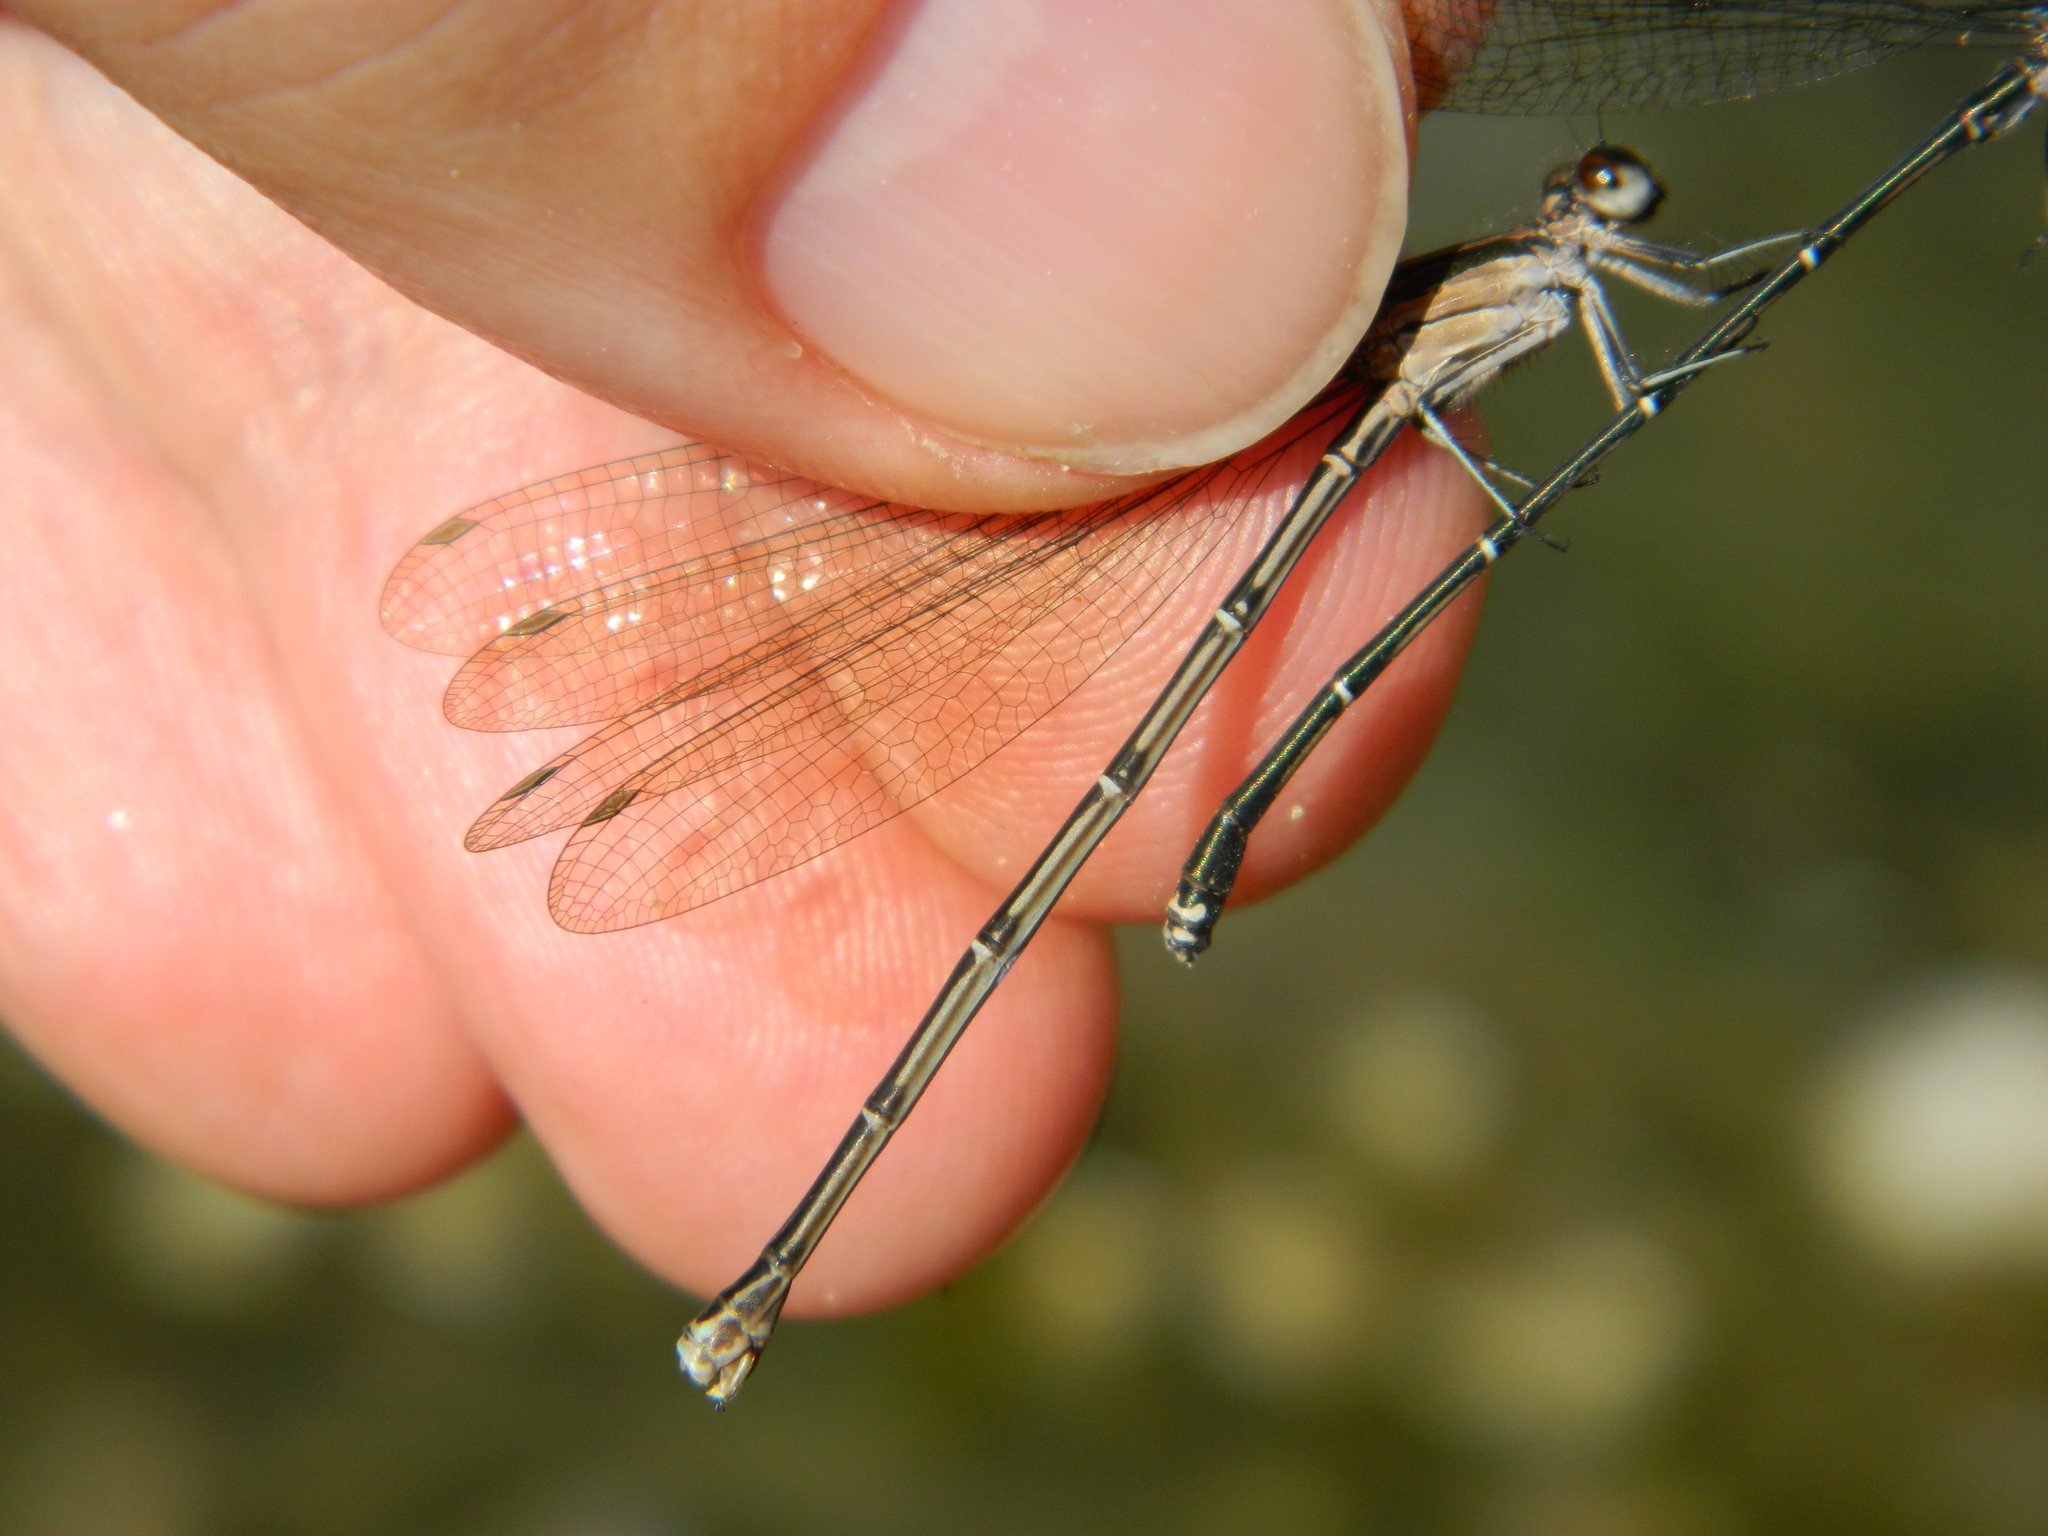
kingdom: Animalia
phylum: Arthropoda
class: Insecta
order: Odonata
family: Coenagrionidae
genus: Argia
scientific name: Argia tezpi
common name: Tezpi dancer
